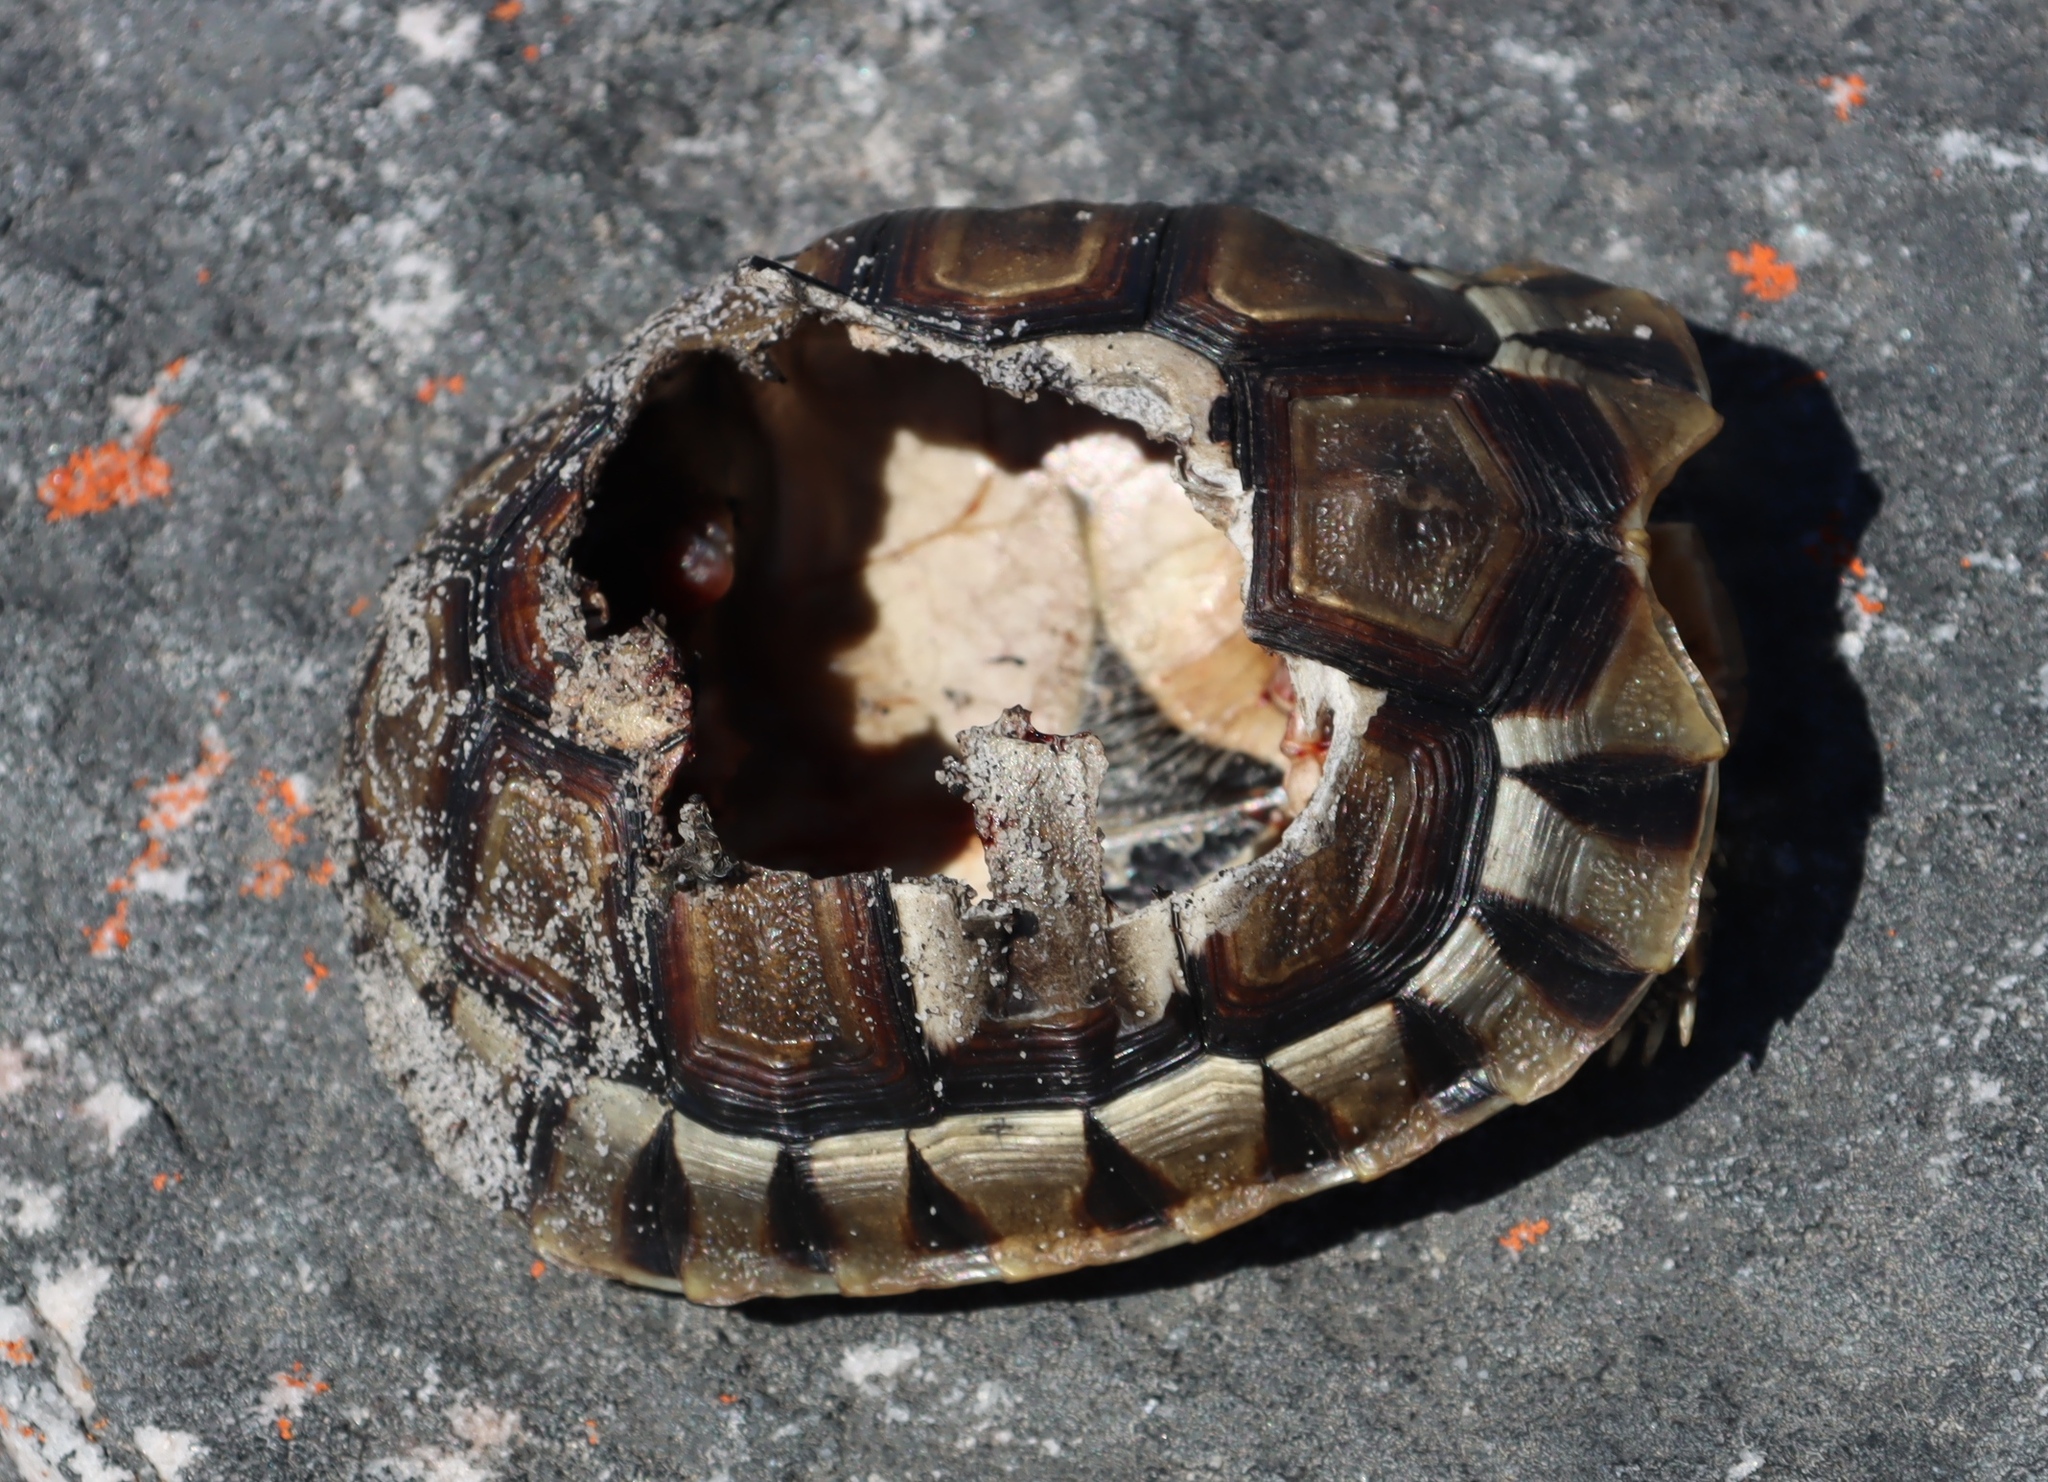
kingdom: Animalia
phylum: Chordata
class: Testudines
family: Testudinidae
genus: Chersina
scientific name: Chersina angulata
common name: South african bowsprit tortoise
